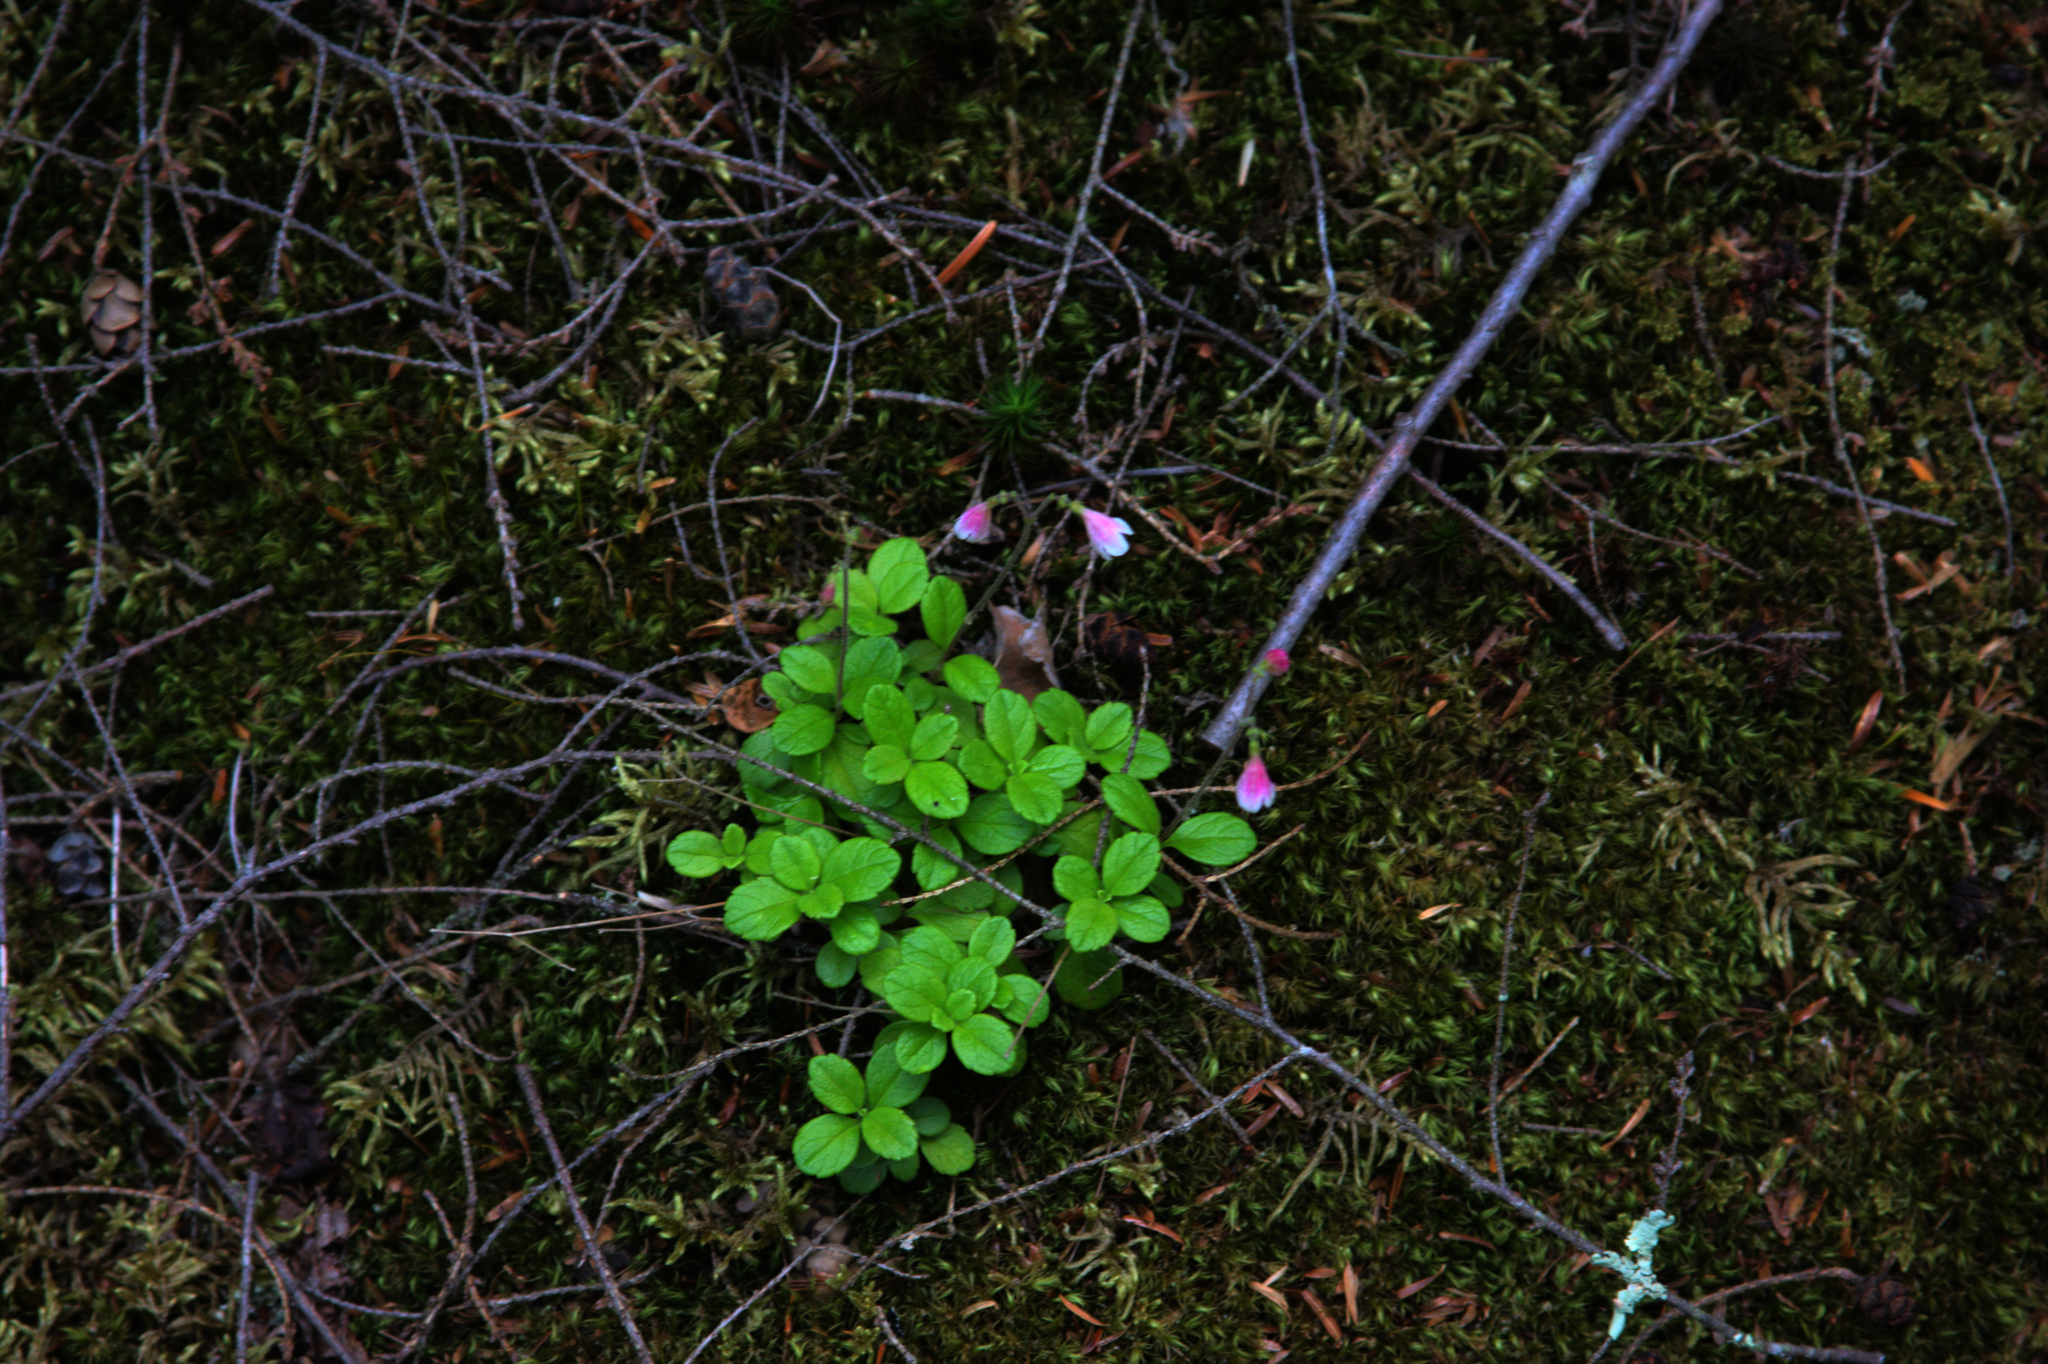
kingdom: Plantae
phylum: Tracheophyta
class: Magnoliopsida
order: Dipsacales
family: Caprifoliaceae
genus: Linnaea
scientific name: Linnaea borealis
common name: Twinflower
